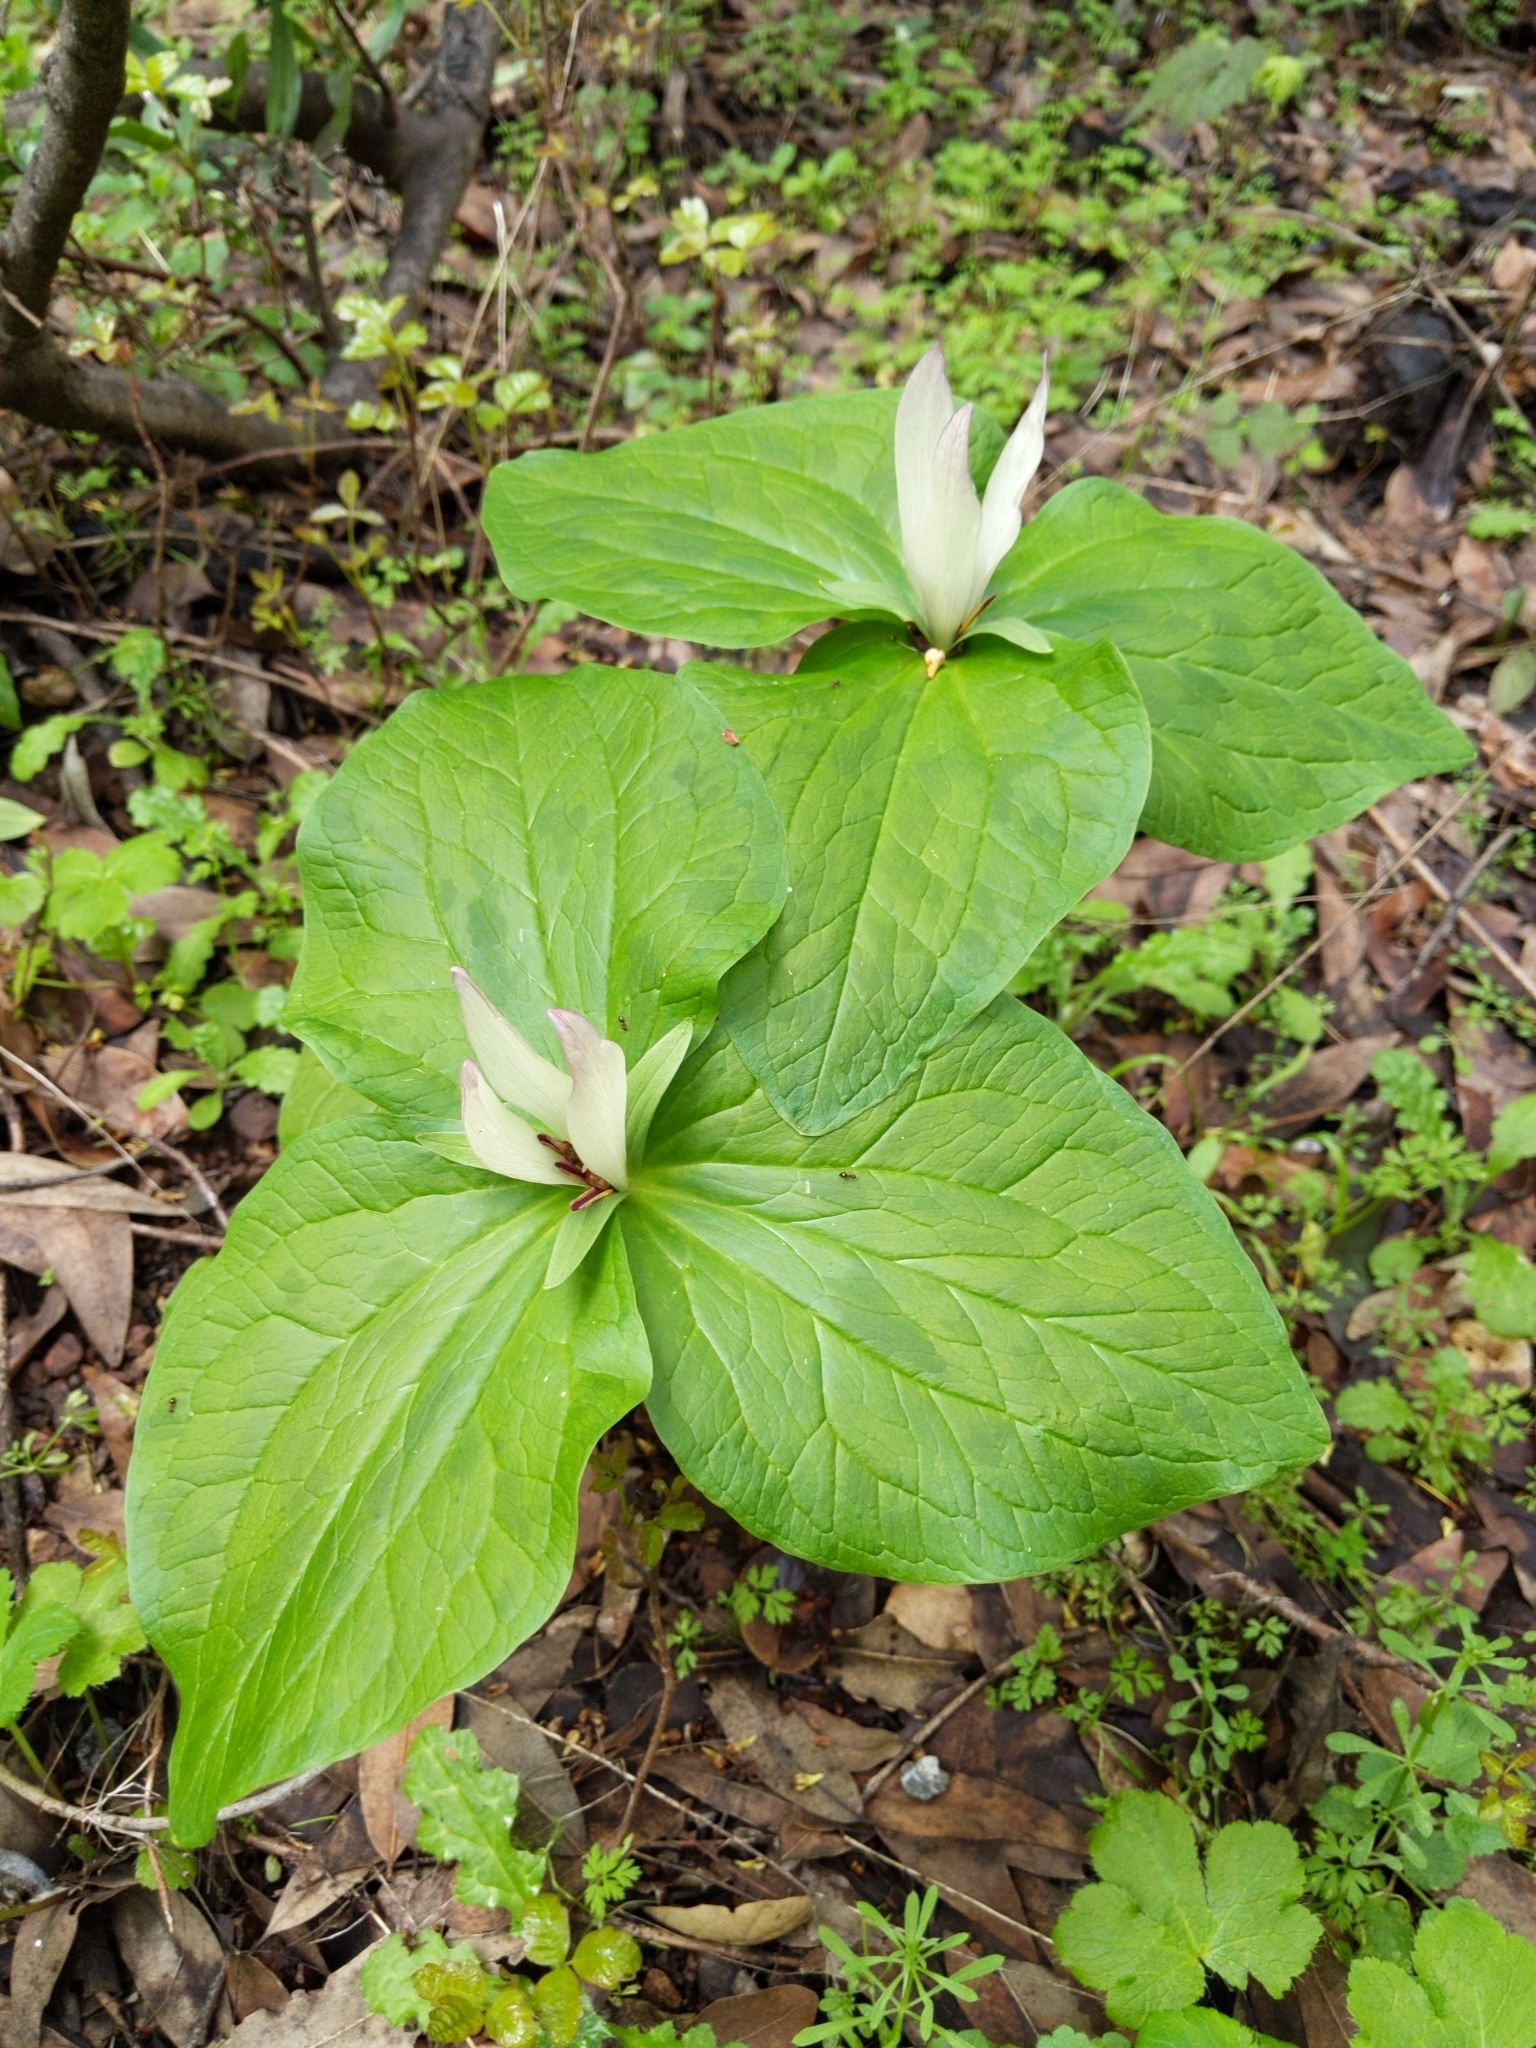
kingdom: Plantae
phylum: Tracheophyta
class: Liliopsida
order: Liliales
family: Melanthiaceae
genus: Trillium
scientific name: Trillium chloropetalum
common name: Giant trillium
